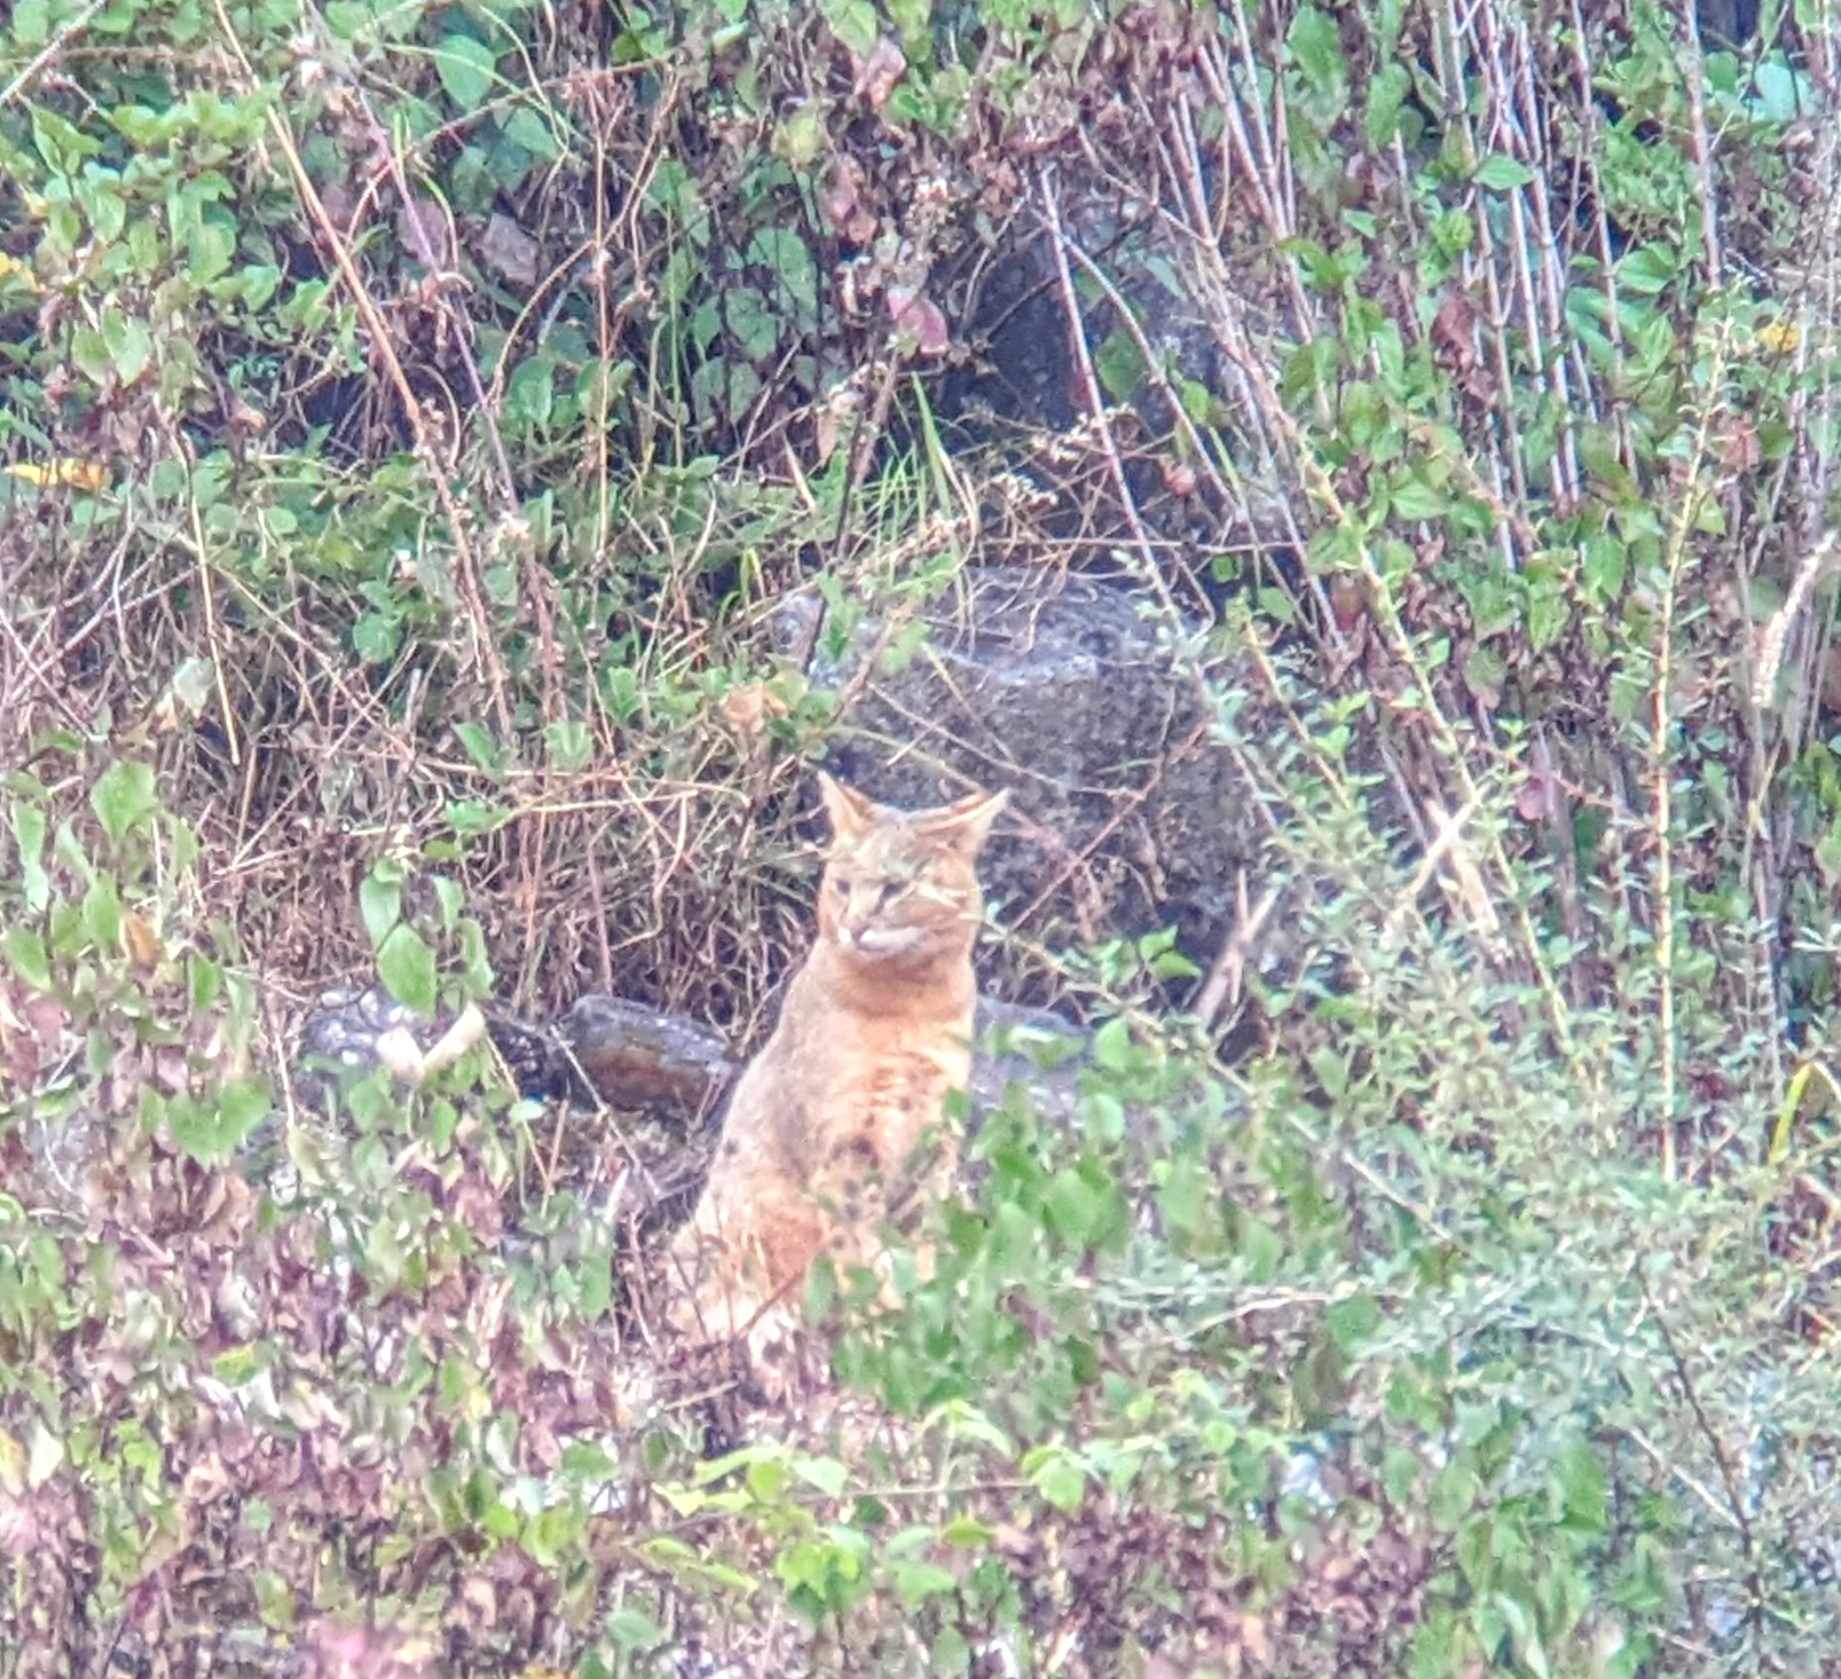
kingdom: Animalia
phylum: Chordata
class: Mammalia
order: Carnivora
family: Felidae
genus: Felis
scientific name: Felis chaus
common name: Jungle cat
